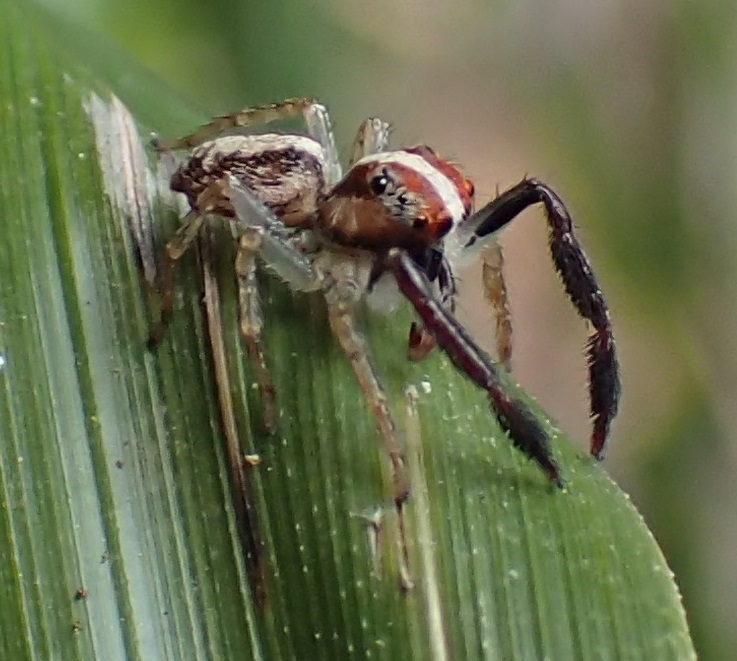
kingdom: Animalia
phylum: Arthropoda
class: Arachnida
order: Araneae
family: Salticidae
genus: Prostheclina
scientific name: Prostheclina amplior
